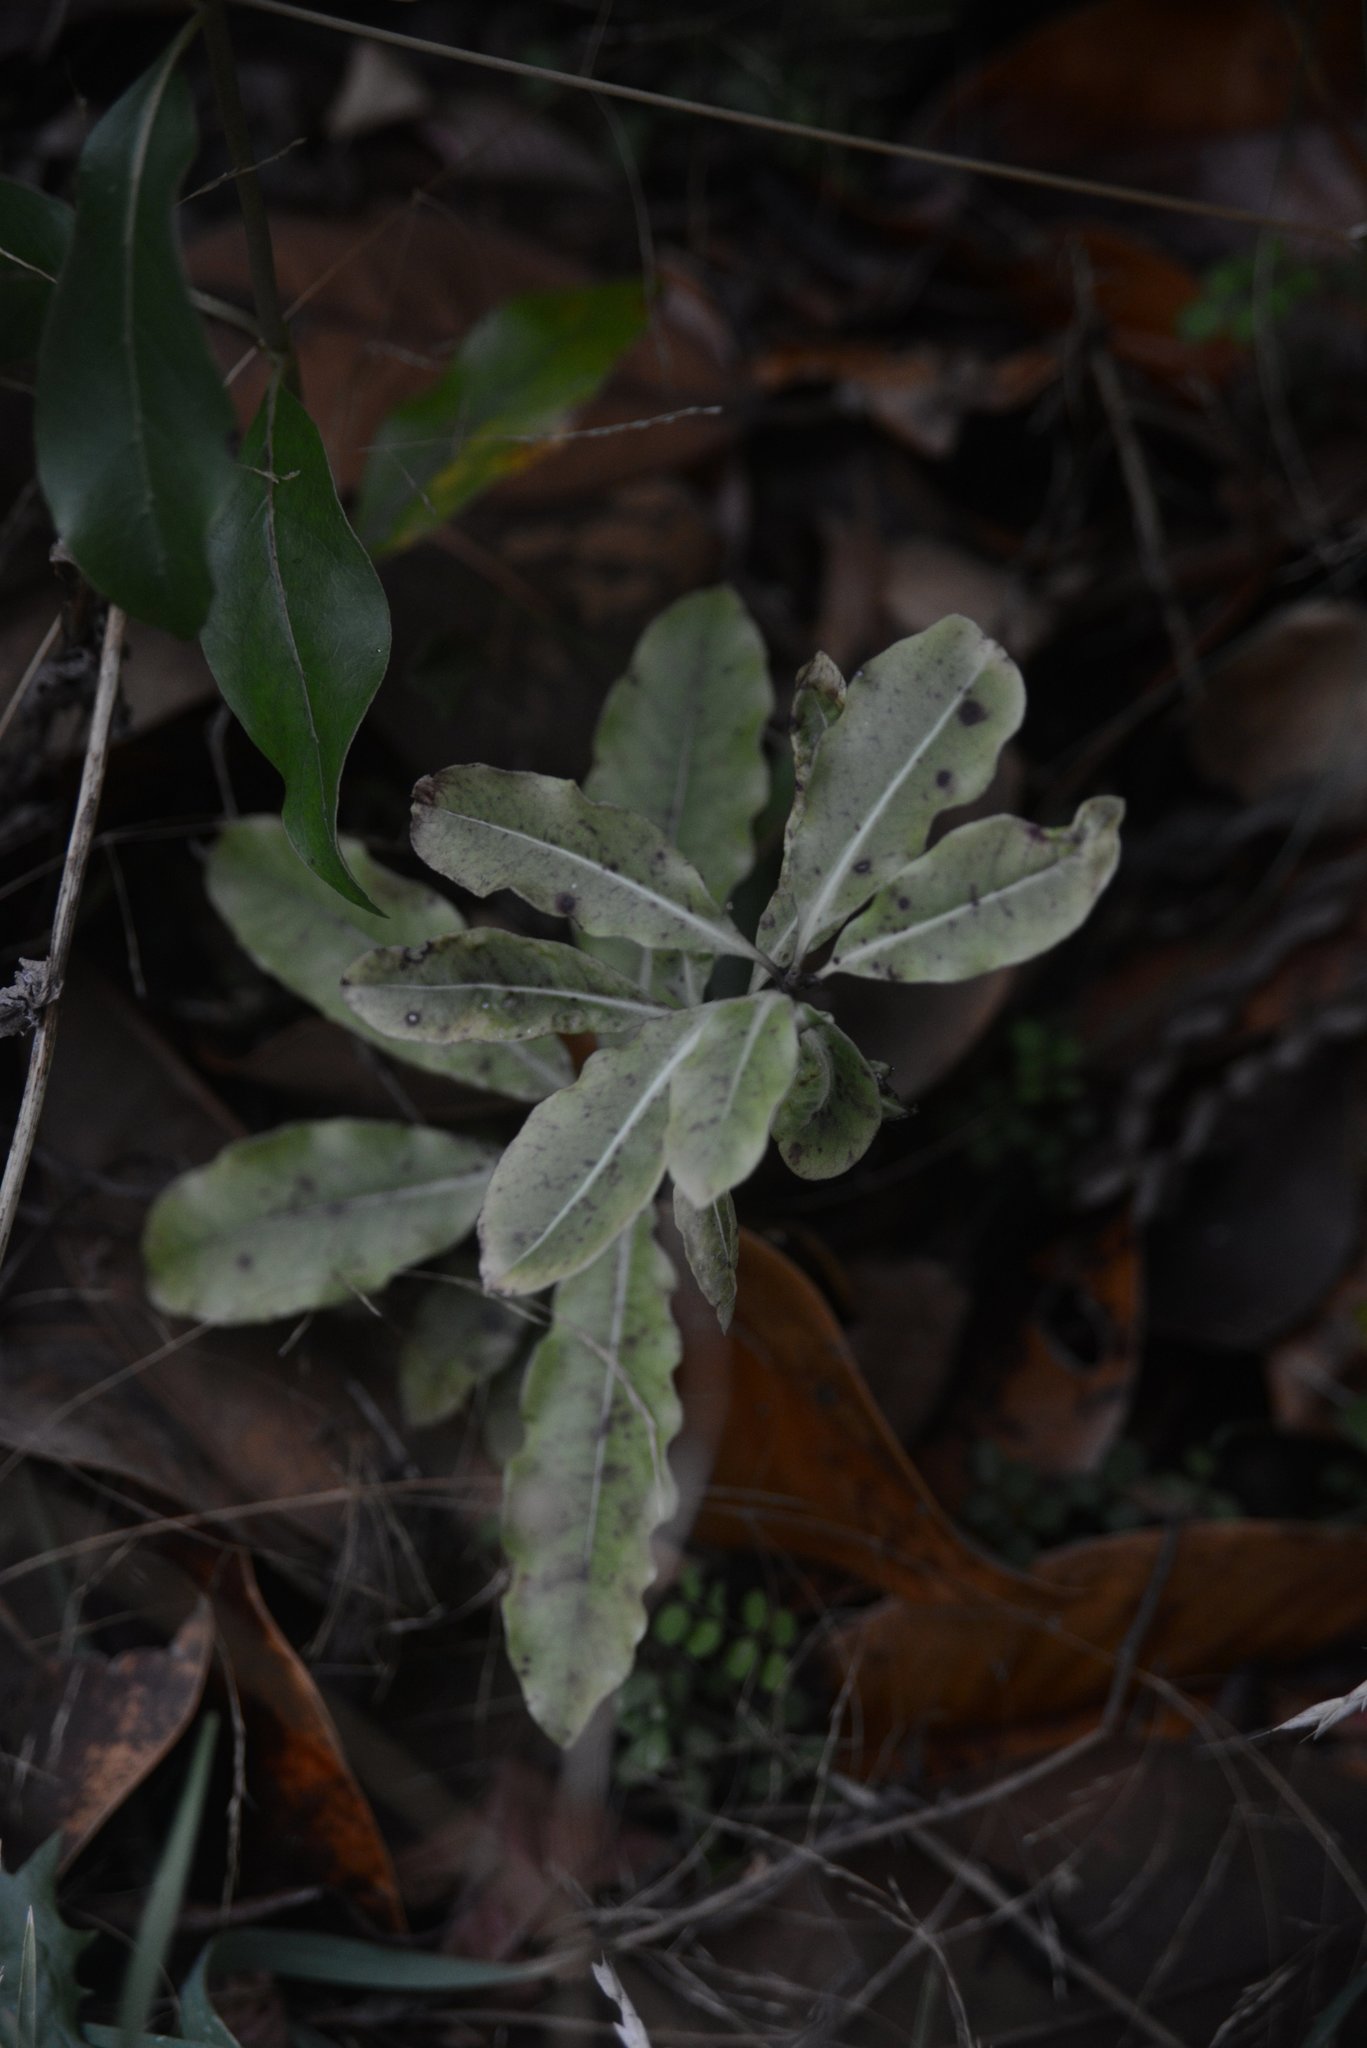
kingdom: Plantae
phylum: Tracheophyta
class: Magnoliopsida
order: Apiales
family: Pittosporaceae
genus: Pittosporum
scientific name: Pittosporum eugenioides
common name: Lemonwood
